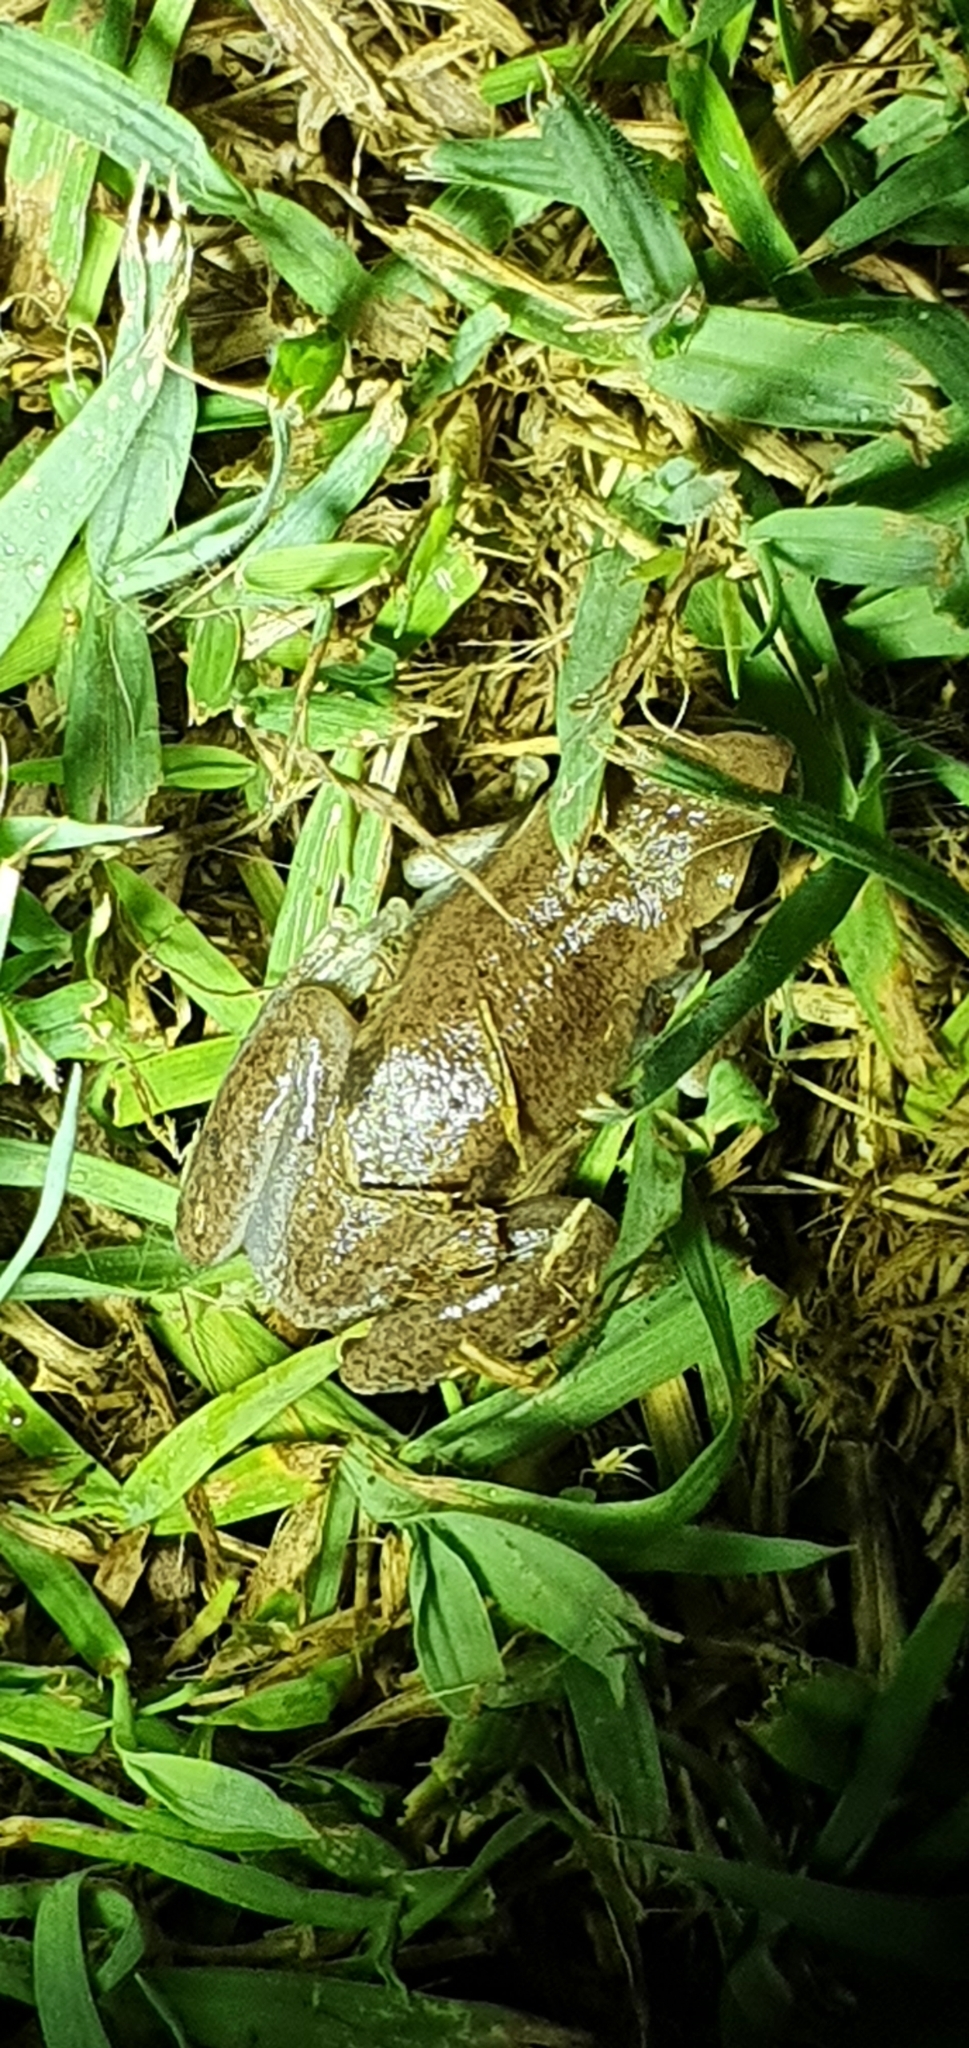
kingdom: Animalia
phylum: Chordata
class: Amphibia
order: Anura
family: Pelodryadidae
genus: Litoria
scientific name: Litoria rubella
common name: Desert tree frog
